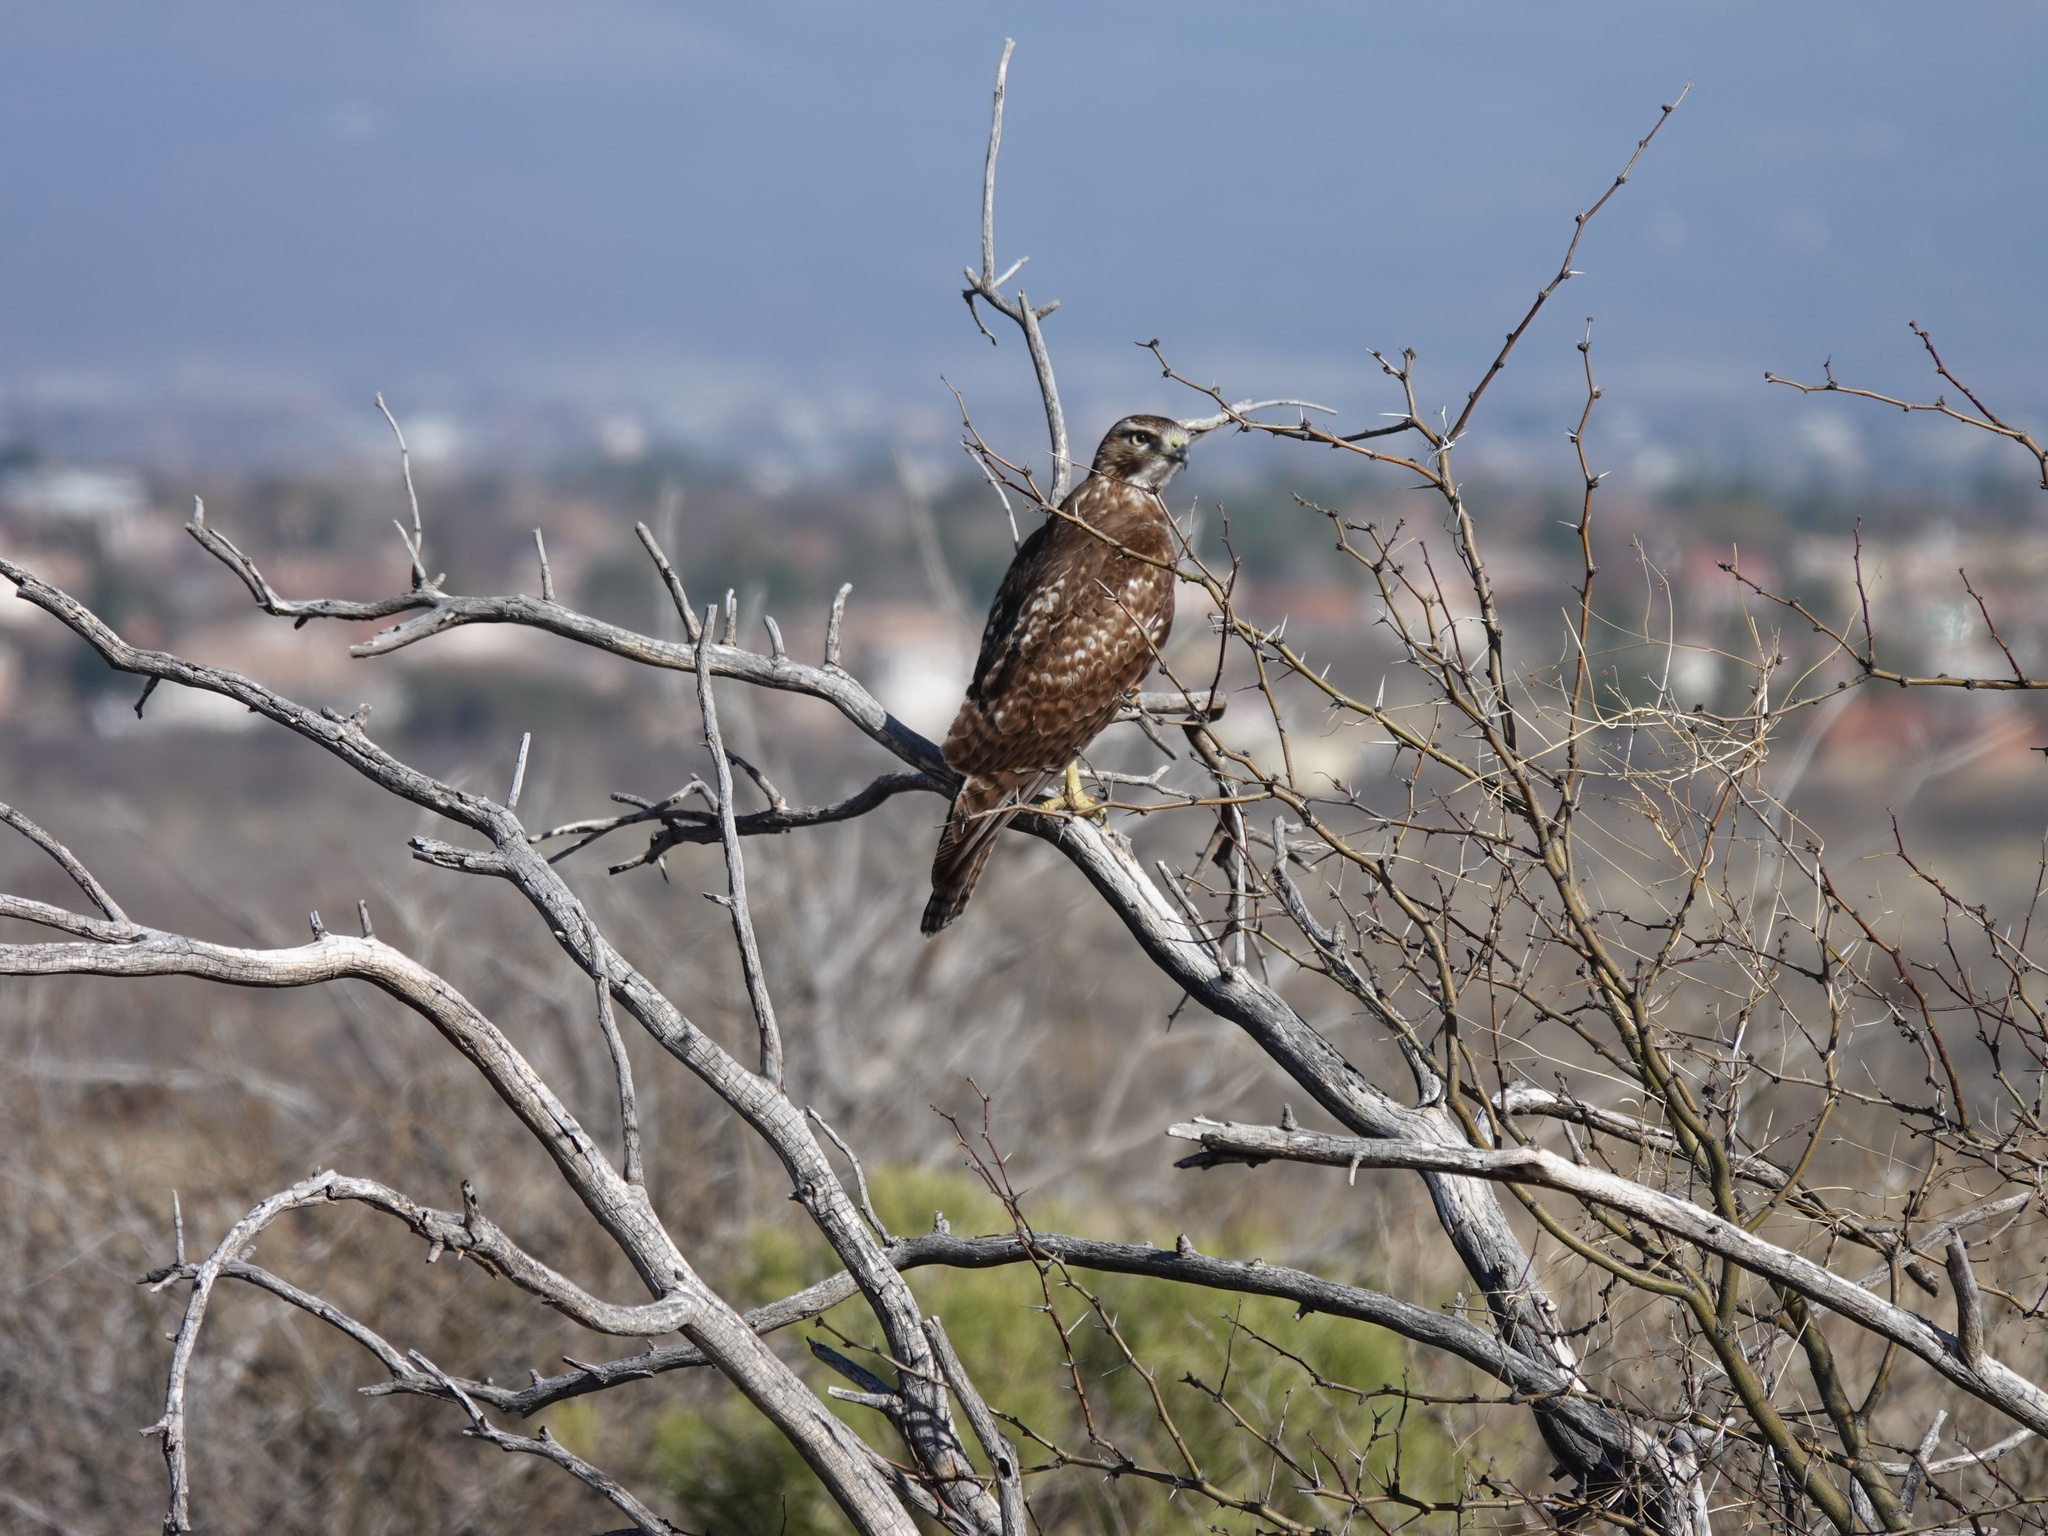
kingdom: Animalia
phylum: Chordata
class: Aves
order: Accipitriformes
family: Accipitridae
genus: Buteo
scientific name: Buteo jamaicensis
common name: Red-tailed hawk
